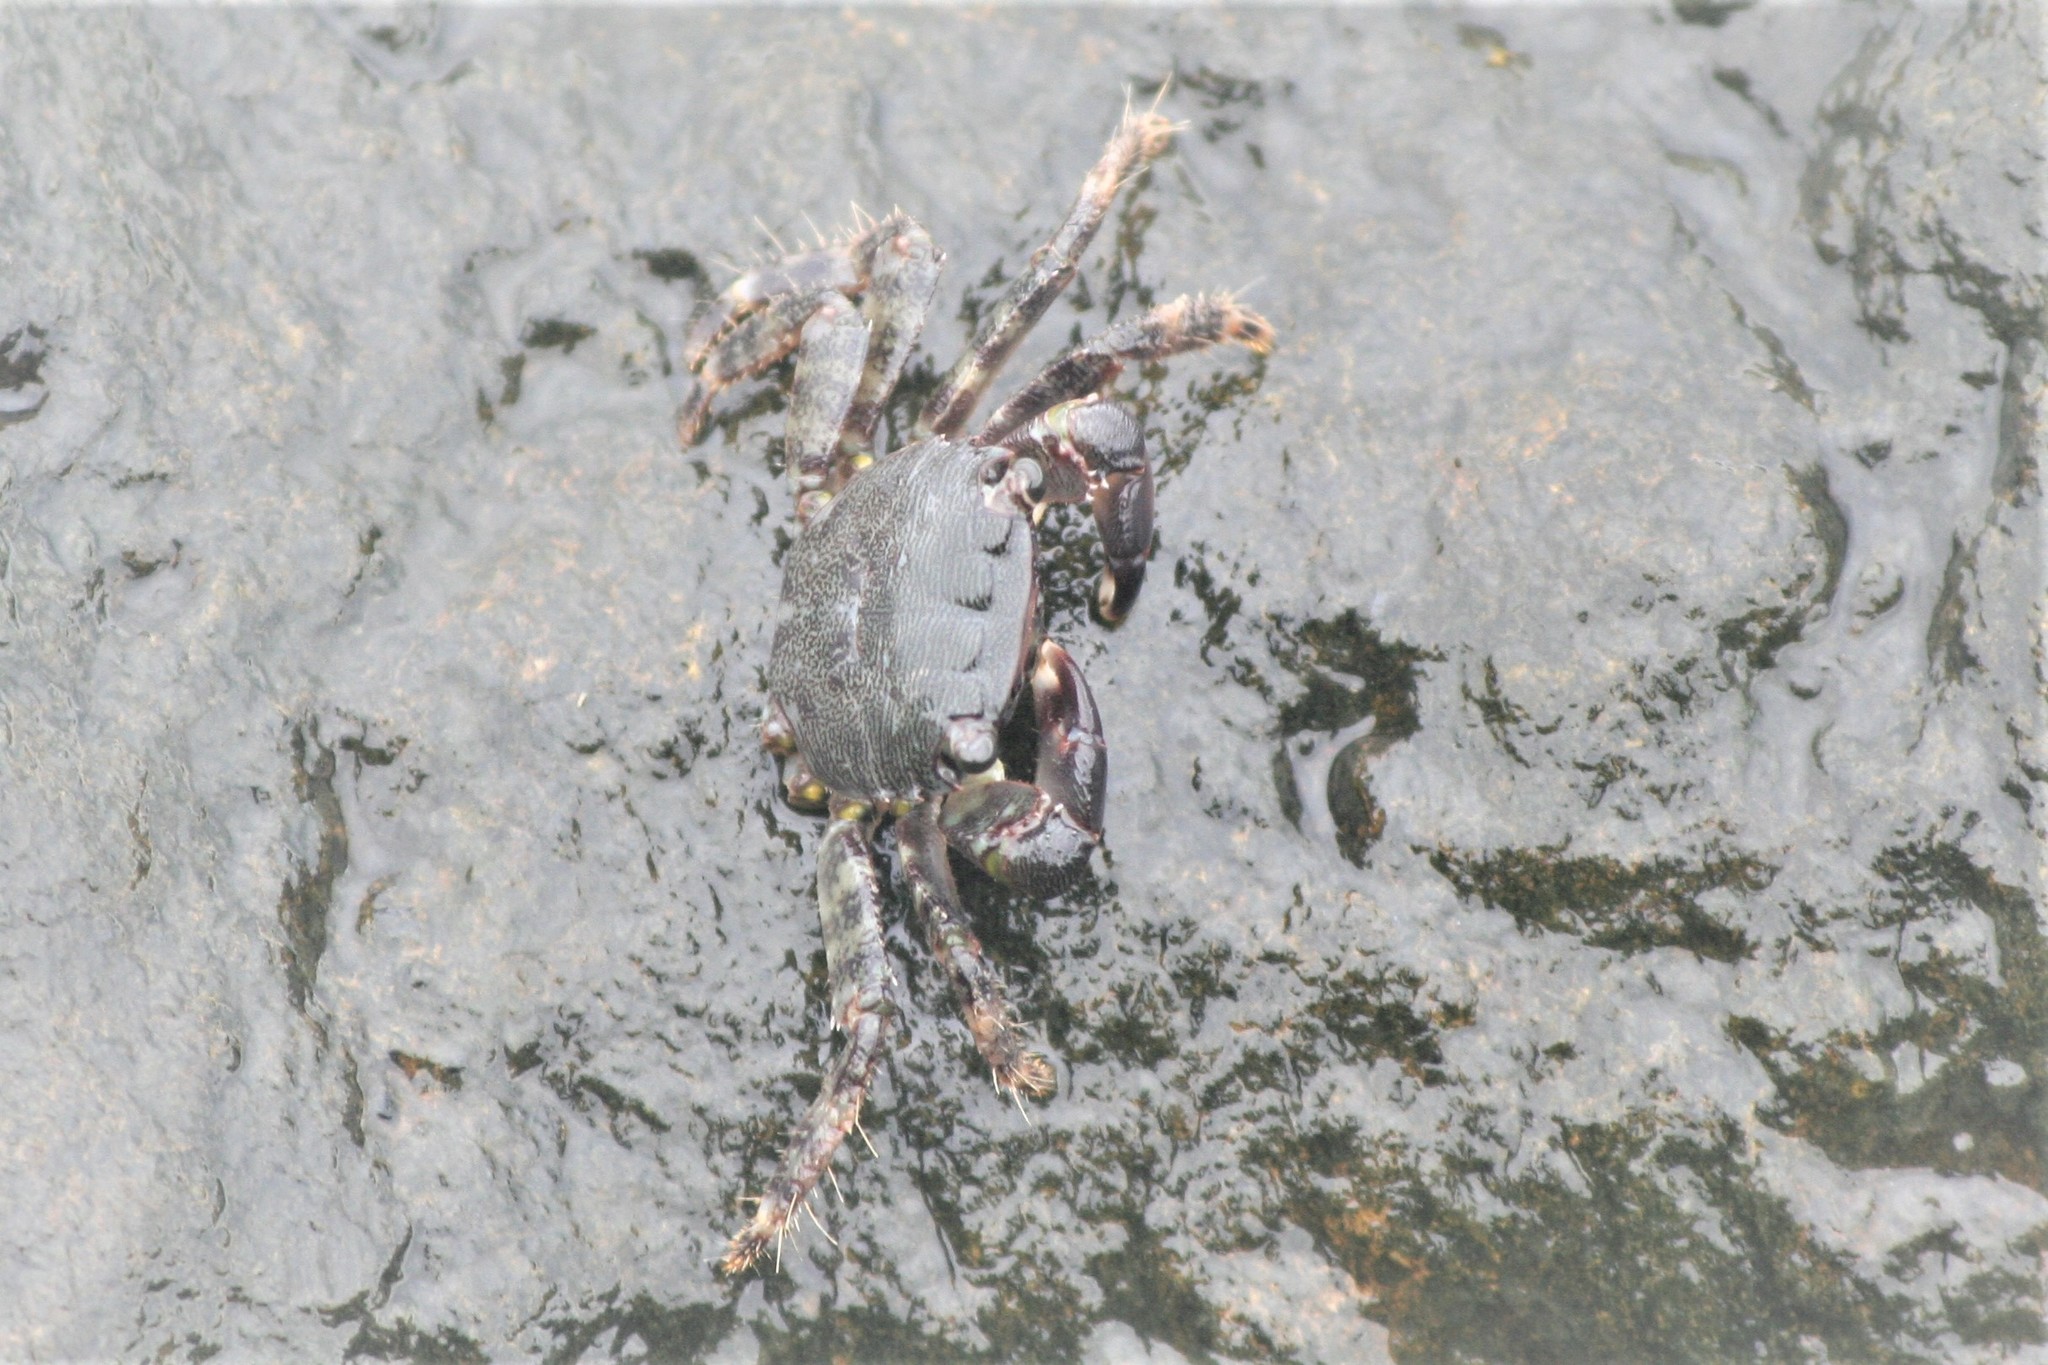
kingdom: Animalia
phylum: Arthropoda
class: Malacostraca
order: Decapoda
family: Grapsidae
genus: Pachygrapsus
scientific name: Pachygrapsus marmoratus
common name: Marbled rock crab
